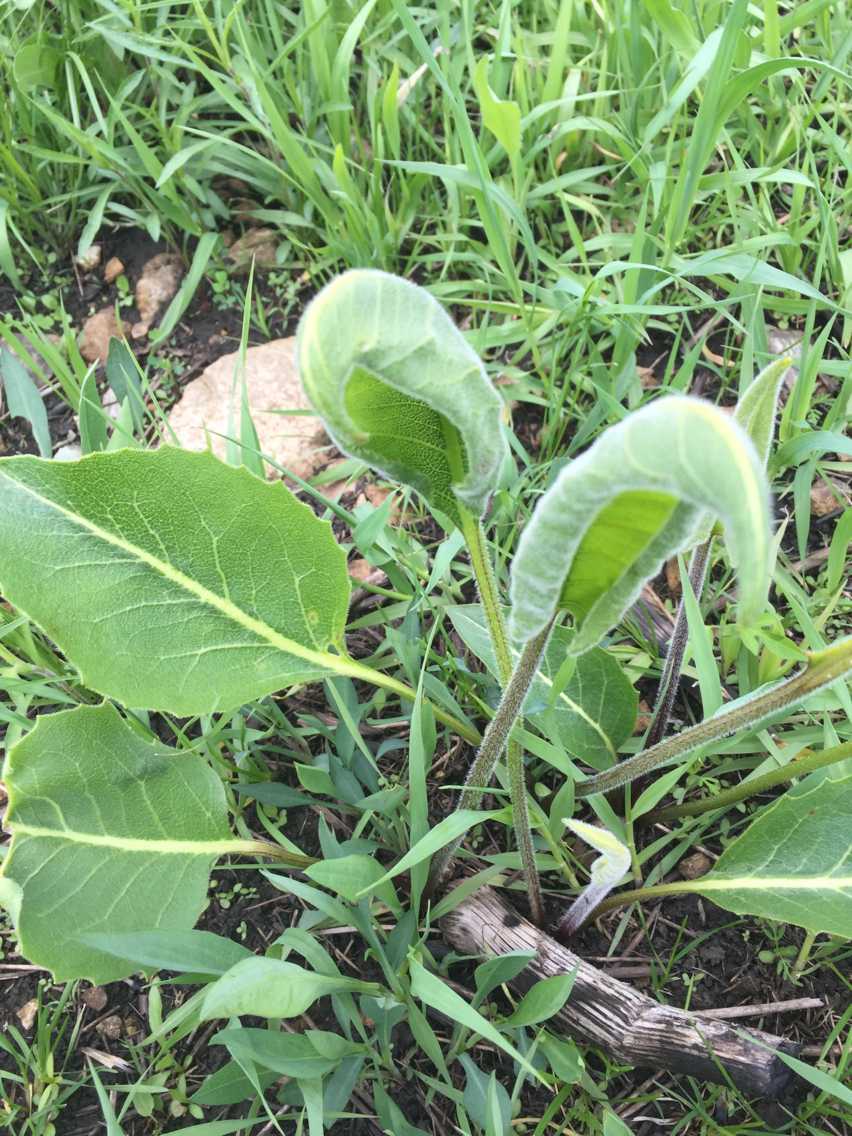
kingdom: Plantae
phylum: Tracheophyta
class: Magnoliopsida
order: Asterales
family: Asteraceae
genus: Silphium
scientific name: Silphium terebinthinaceum
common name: Basal-leaf rosinweed
